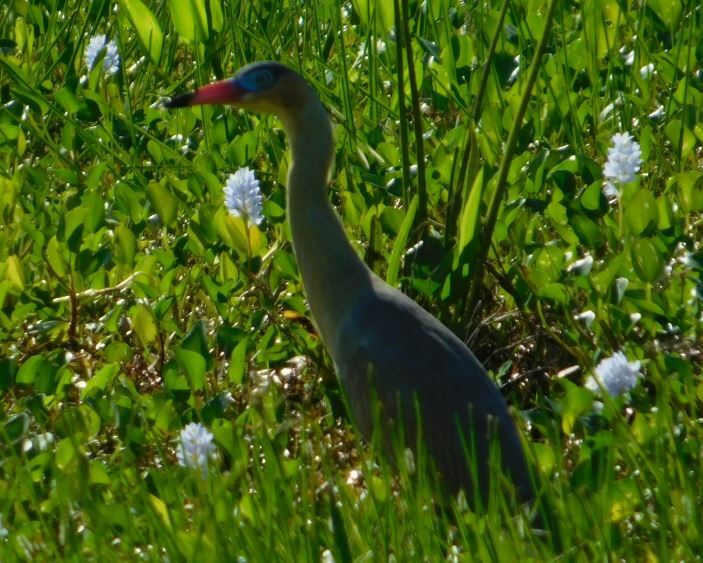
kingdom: Animalia
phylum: Chordata
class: Aves
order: Pelecaniformes
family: Ardeidae
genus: Syrigma
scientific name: Syrigma sibilatrix
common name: Whistling heron
